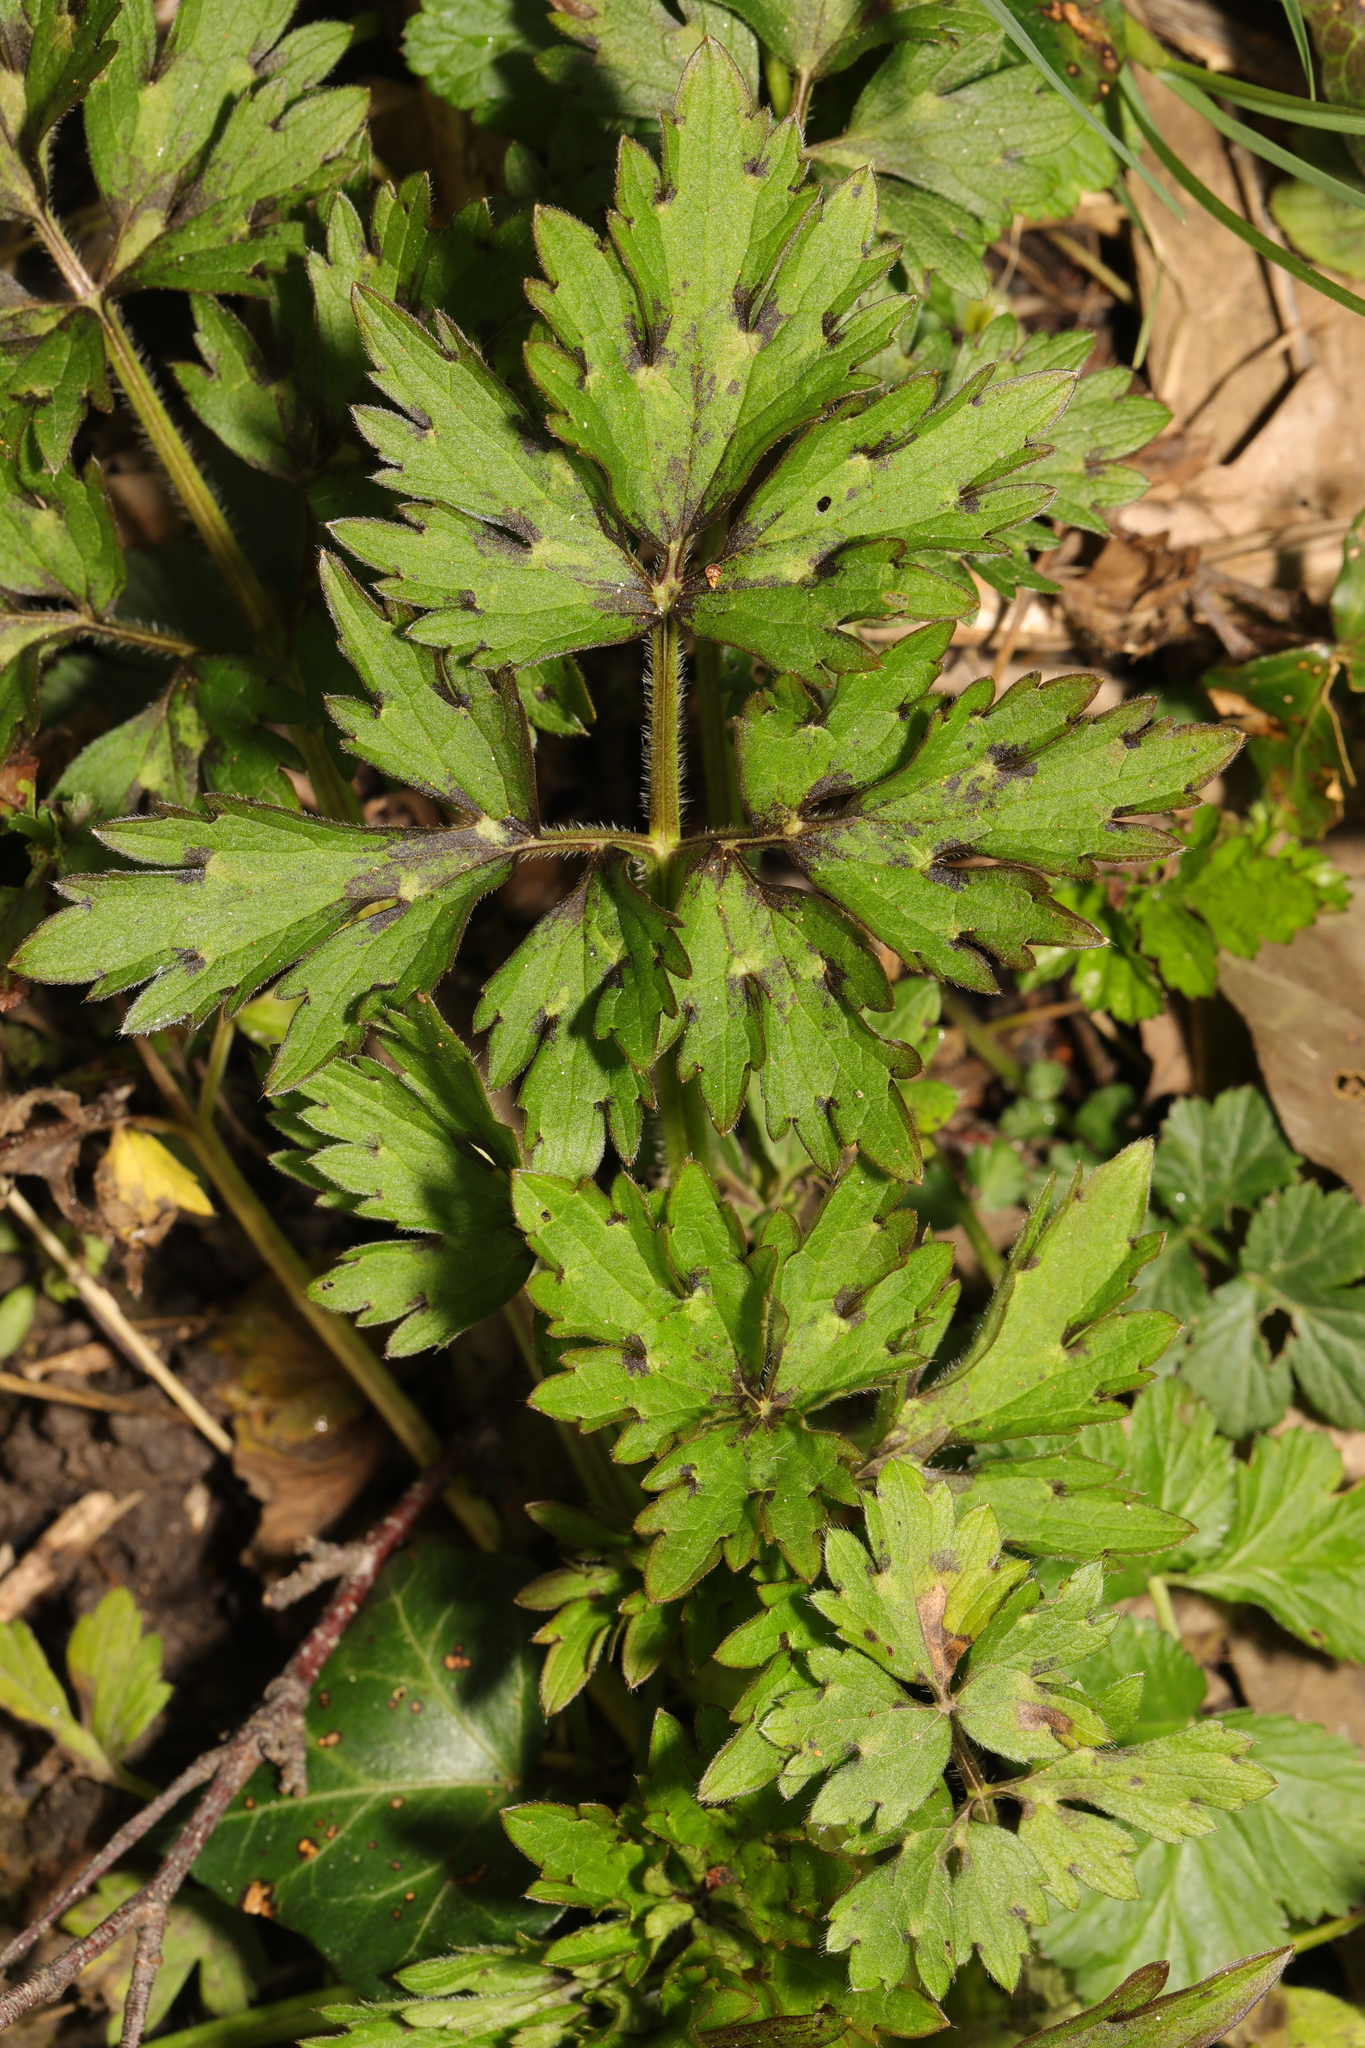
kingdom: Plantae
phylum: Tracheophyta
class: Magnoliopsida
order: Ranunculales
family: Ranunculaceae
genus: Ranunculus
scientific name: Ranunculus repens
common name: Creeping buttercup
